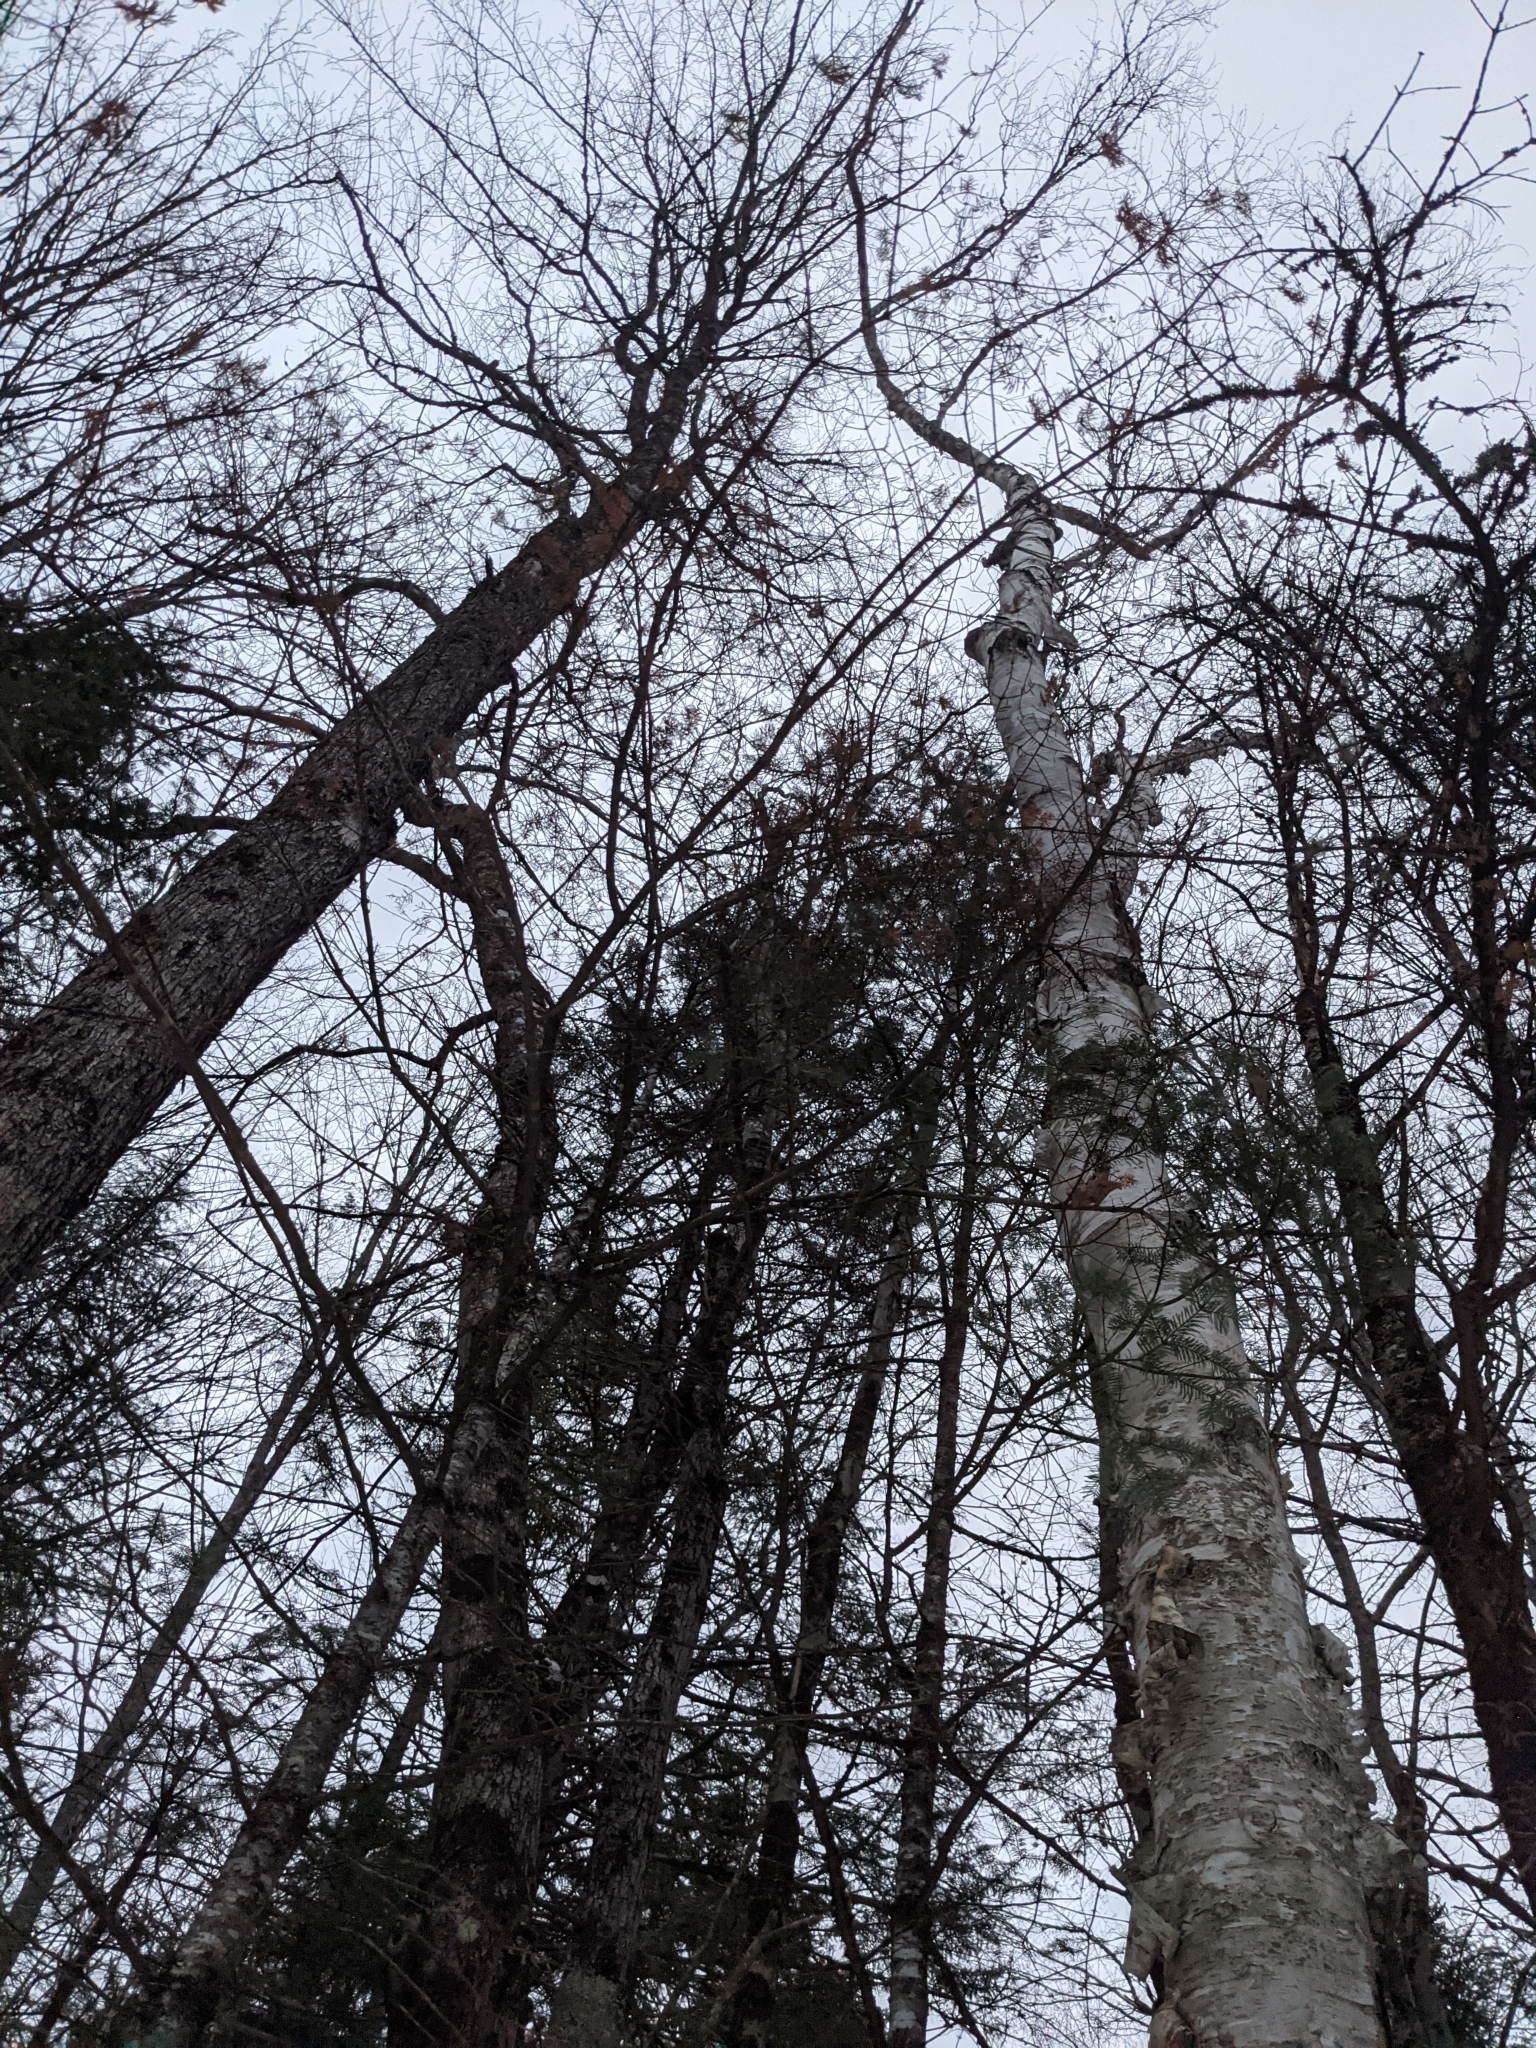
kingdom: Plantae
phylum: Tracheophyta
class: Magnoliopsida
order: Fagales
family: Betulaceae
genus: Betula
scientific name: Betula papyrifera
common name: Paper birch
